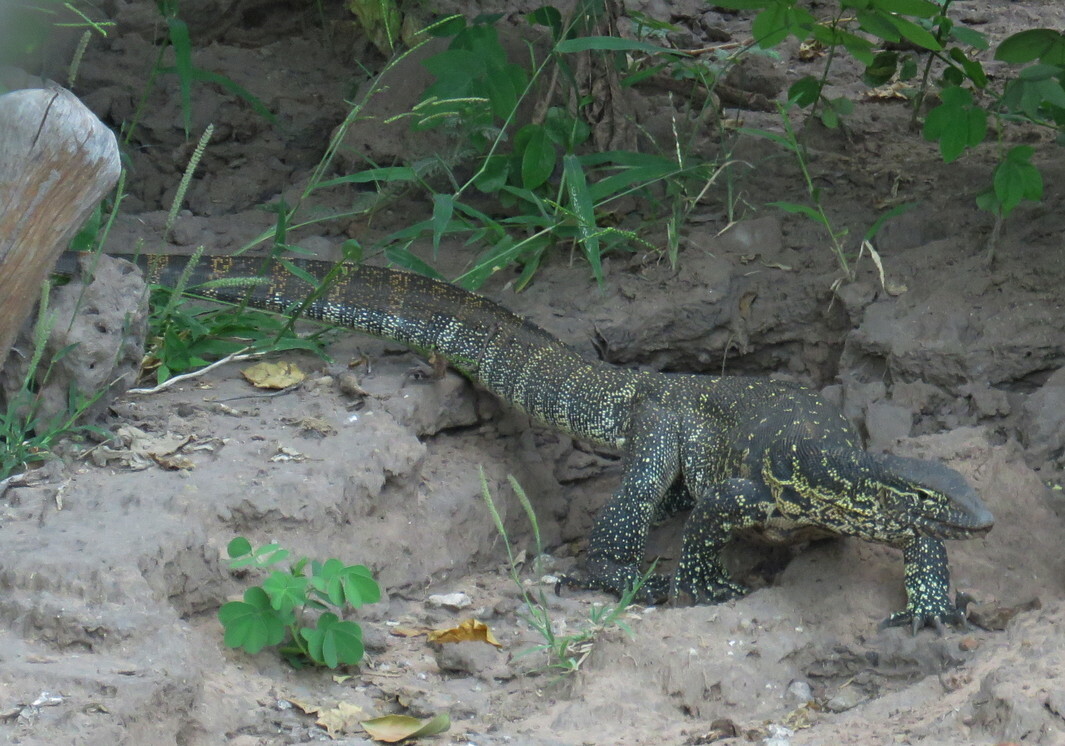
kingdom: Animalia
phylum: Chordata
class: Squamata
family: Varanidae
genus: Varanus
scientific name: Varanus niloticus
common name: Nile monitor
